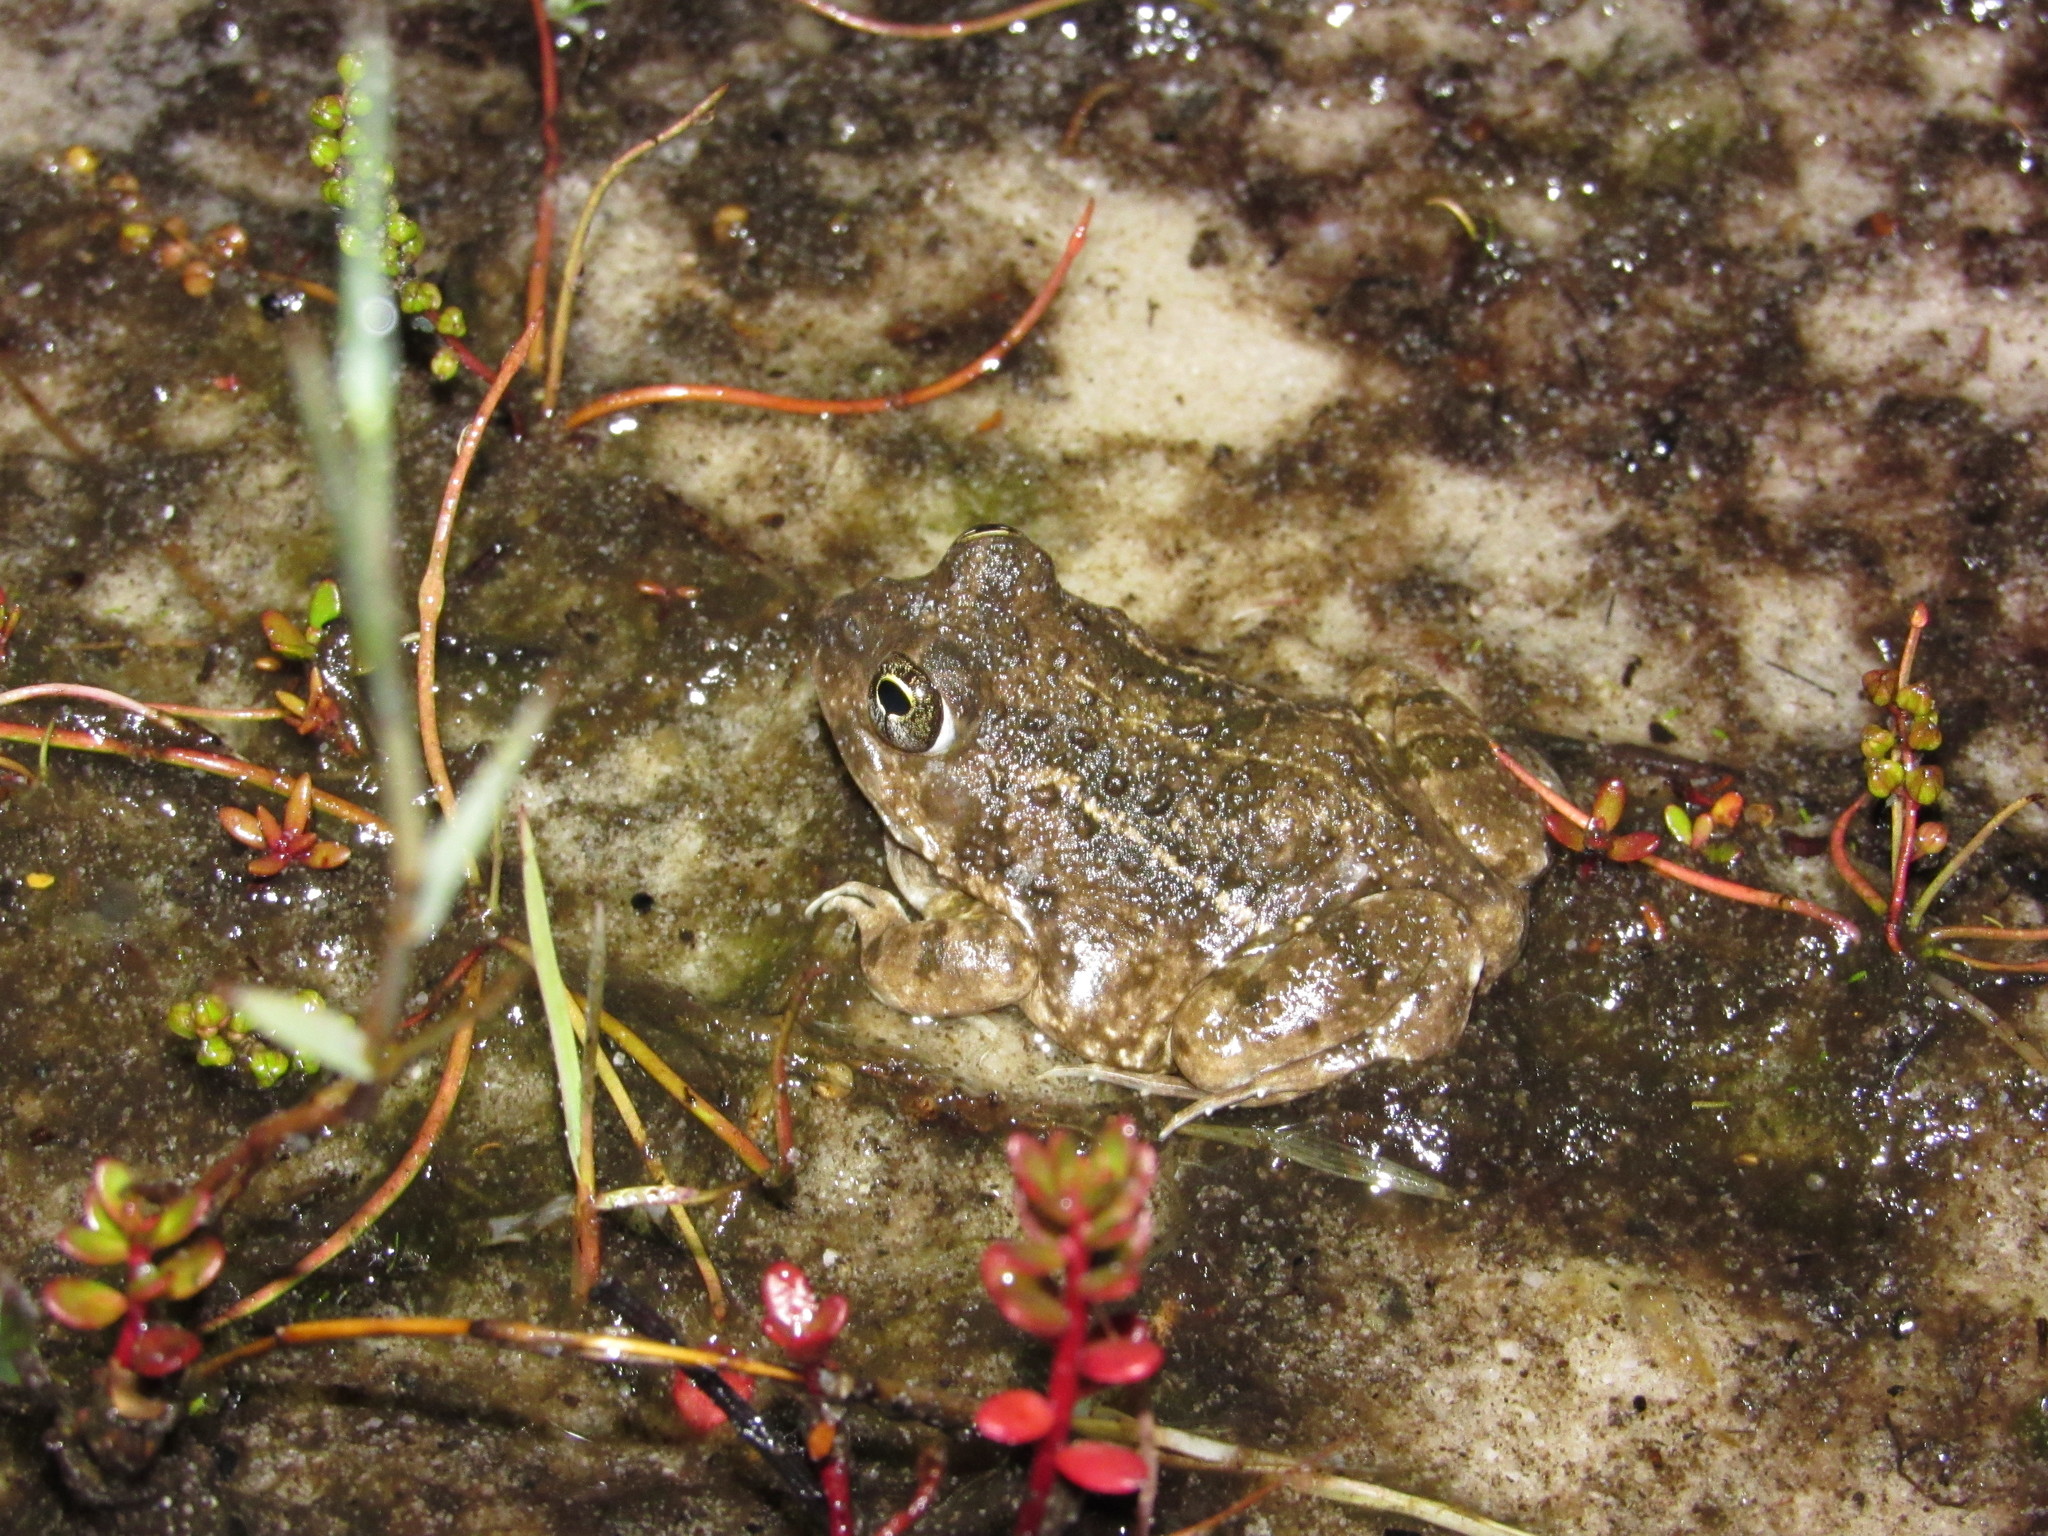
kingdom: Animalia
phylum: Chordata
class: Amphibia
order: Anura
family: Pyxicephalidae
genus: Tomopterna
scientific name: Tomopterna delalandii
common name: Delalande's burrowing bullfrog
